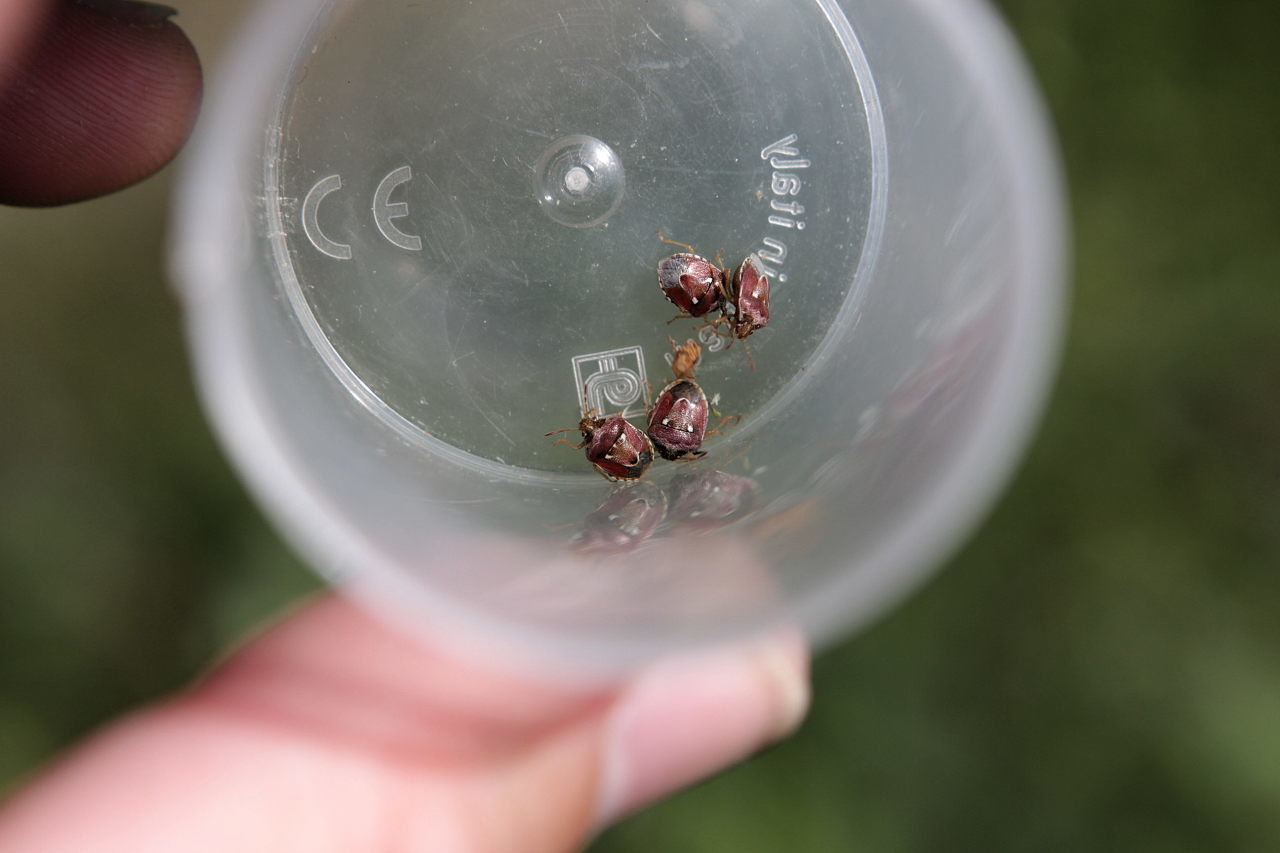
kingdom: Animalia
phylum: Arthropoda
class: Insecta
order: Hemiptera
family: Pentatomidae
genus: Stagonomus
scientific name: Stagonomus bipunctatus
